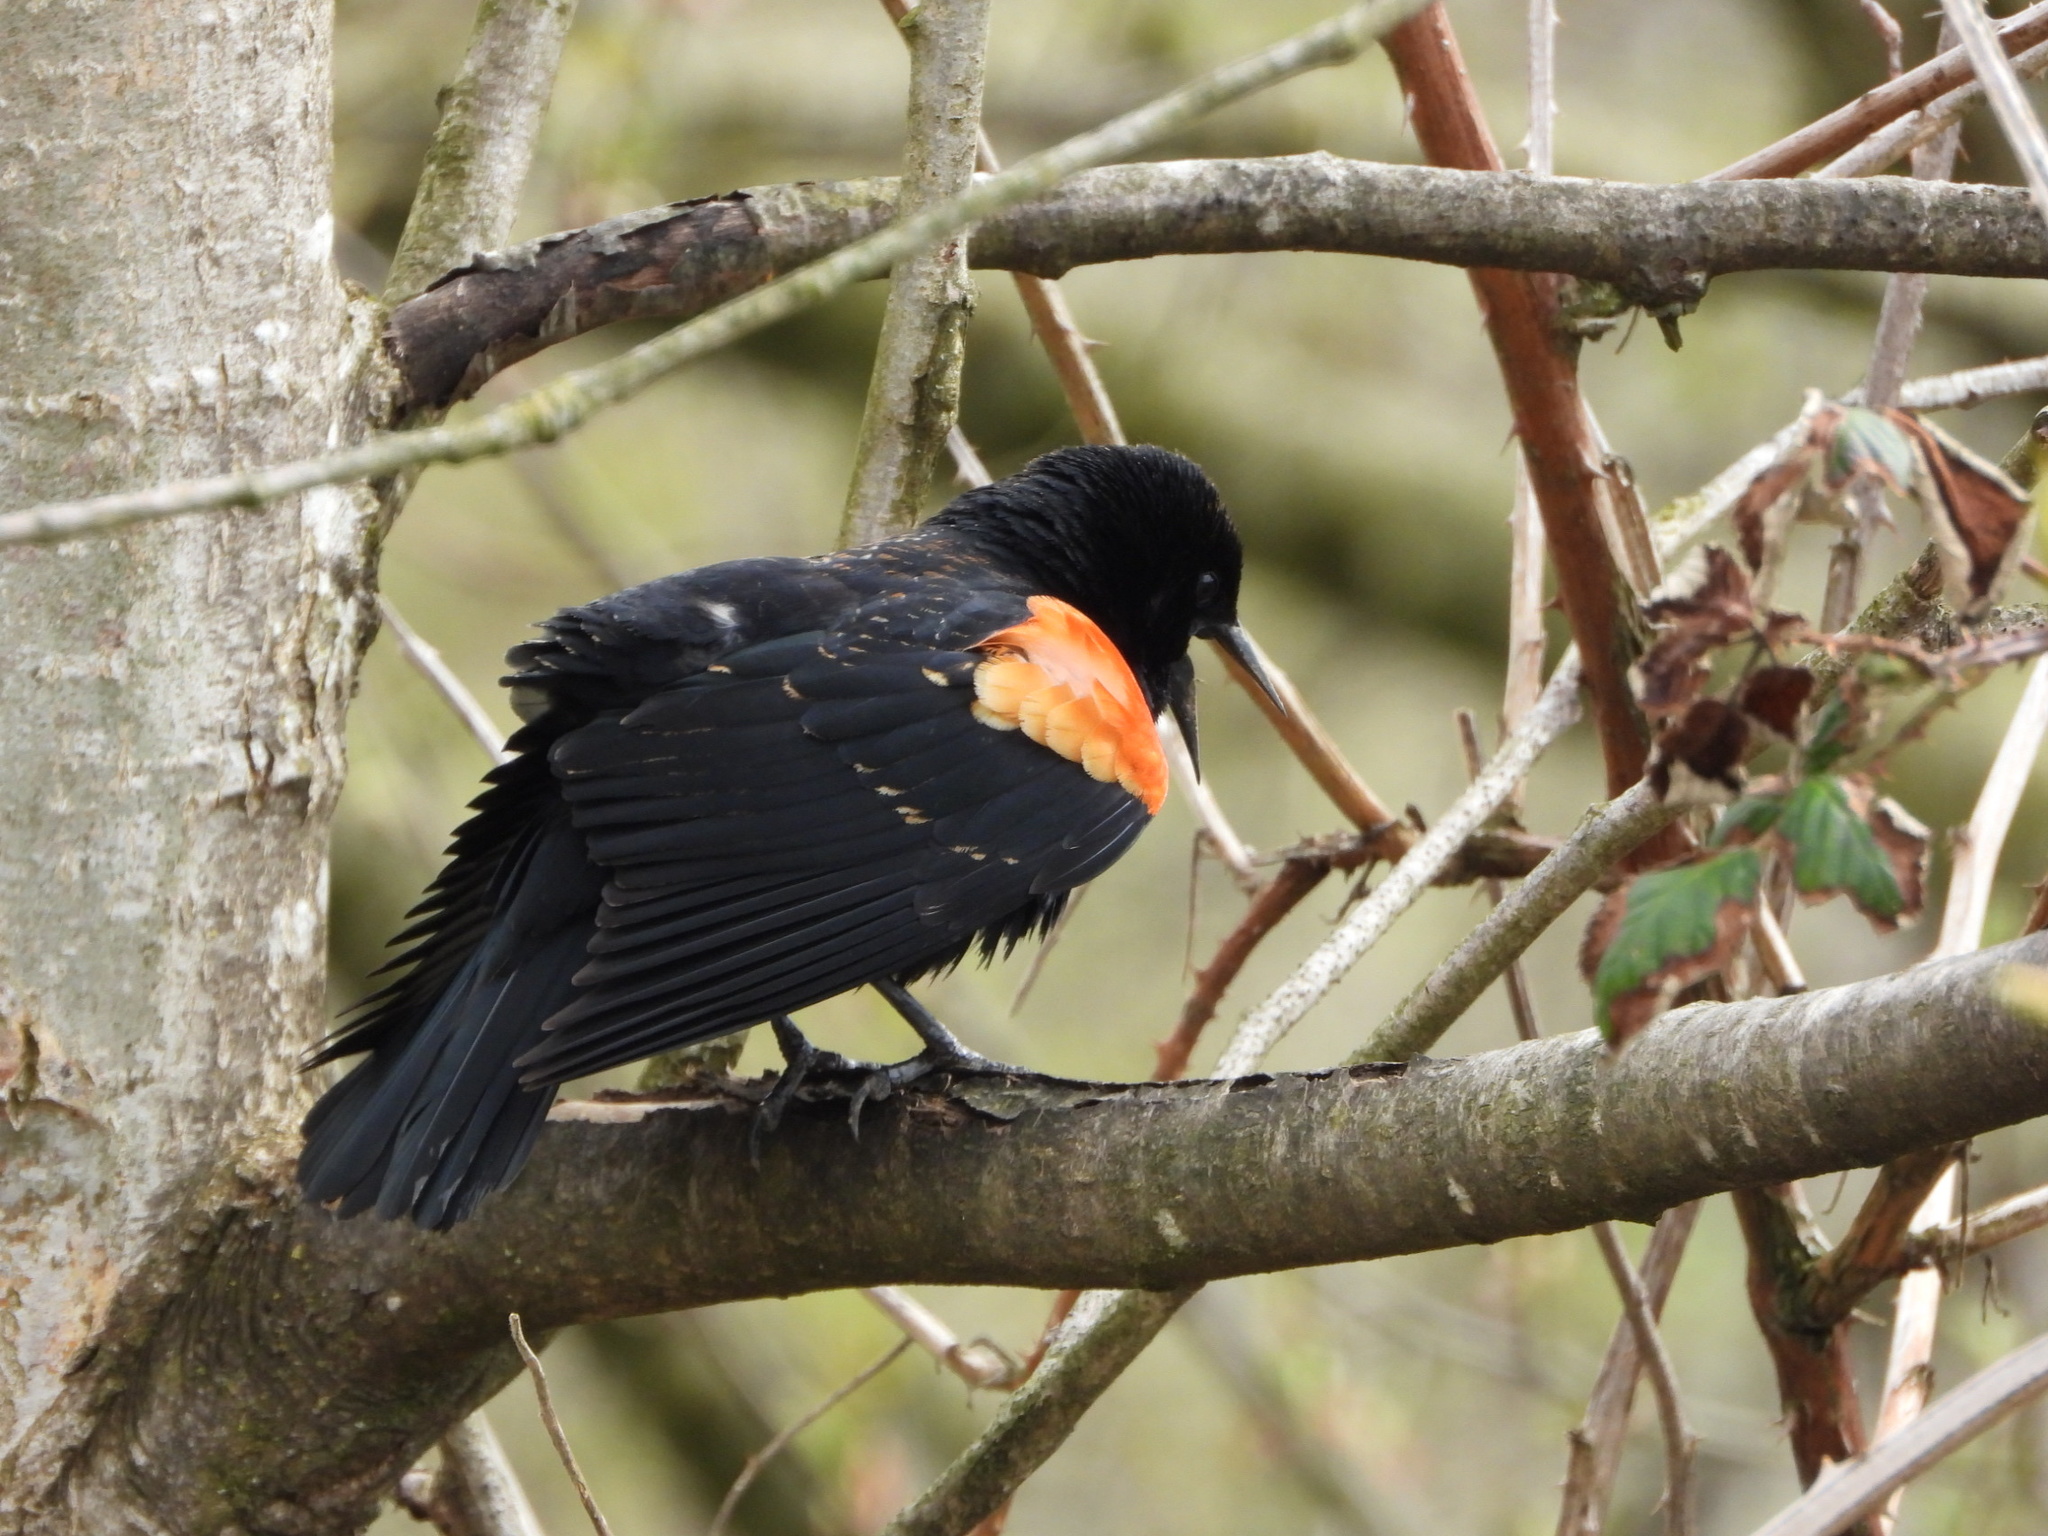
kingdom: Animalia
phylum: Chordata
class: Aves
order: Passeriformes
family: Icteridae
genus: Agelaius
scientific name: Agelaius phoeniceus
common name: Red-winged blackbird
